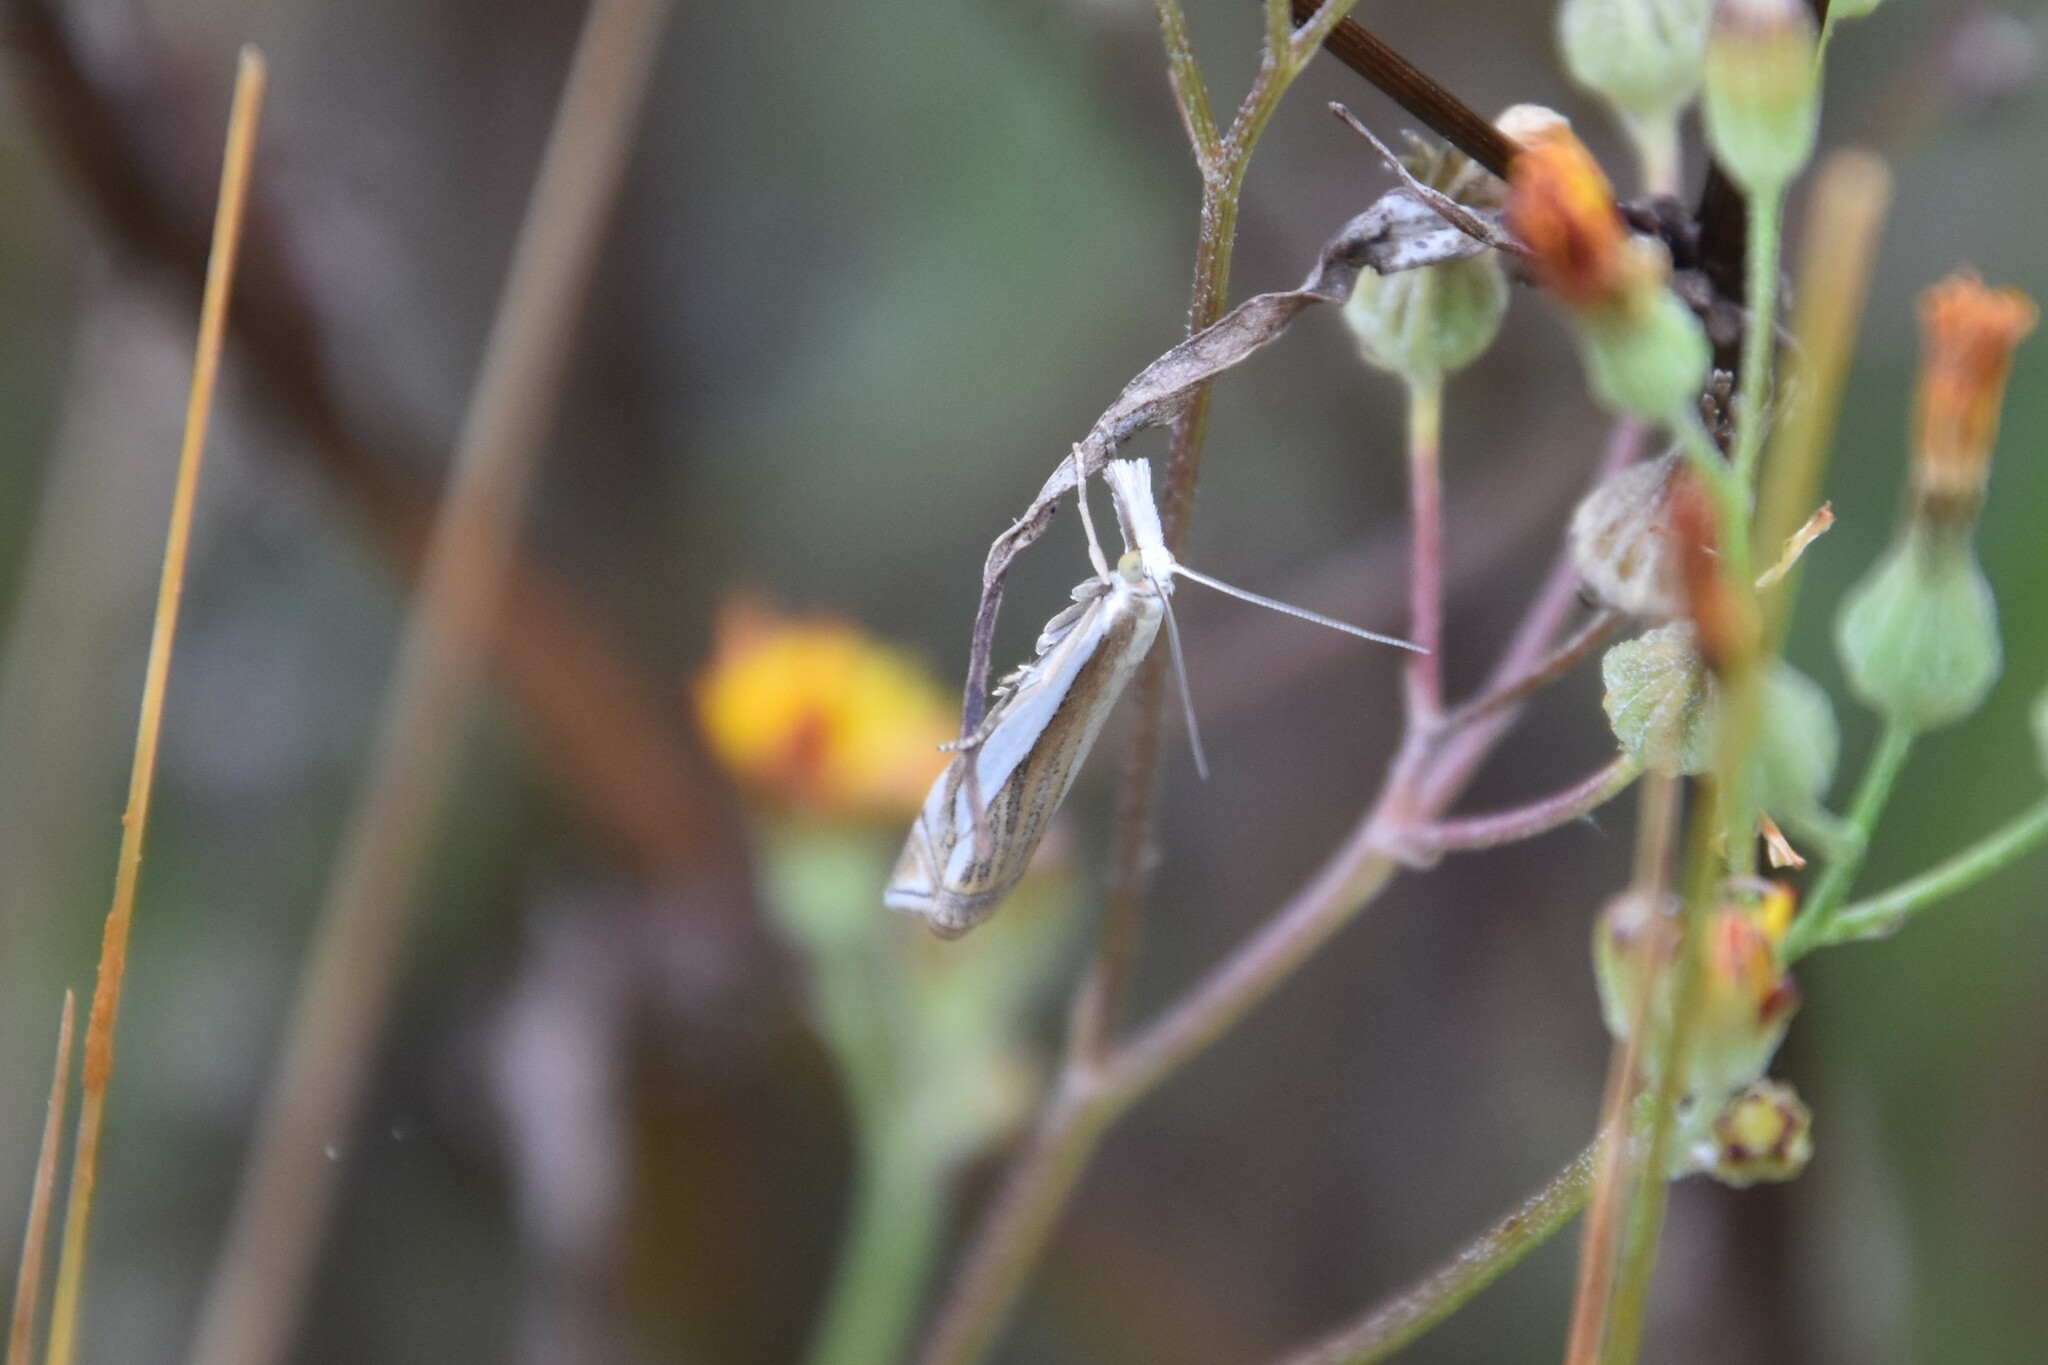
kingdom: Animalia
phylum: Arthropoda
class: Insecta
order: Lepidoptera
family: Crambidae
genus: Crambus
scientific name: Crambus pascuella
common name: Inlaid grass-veneer
